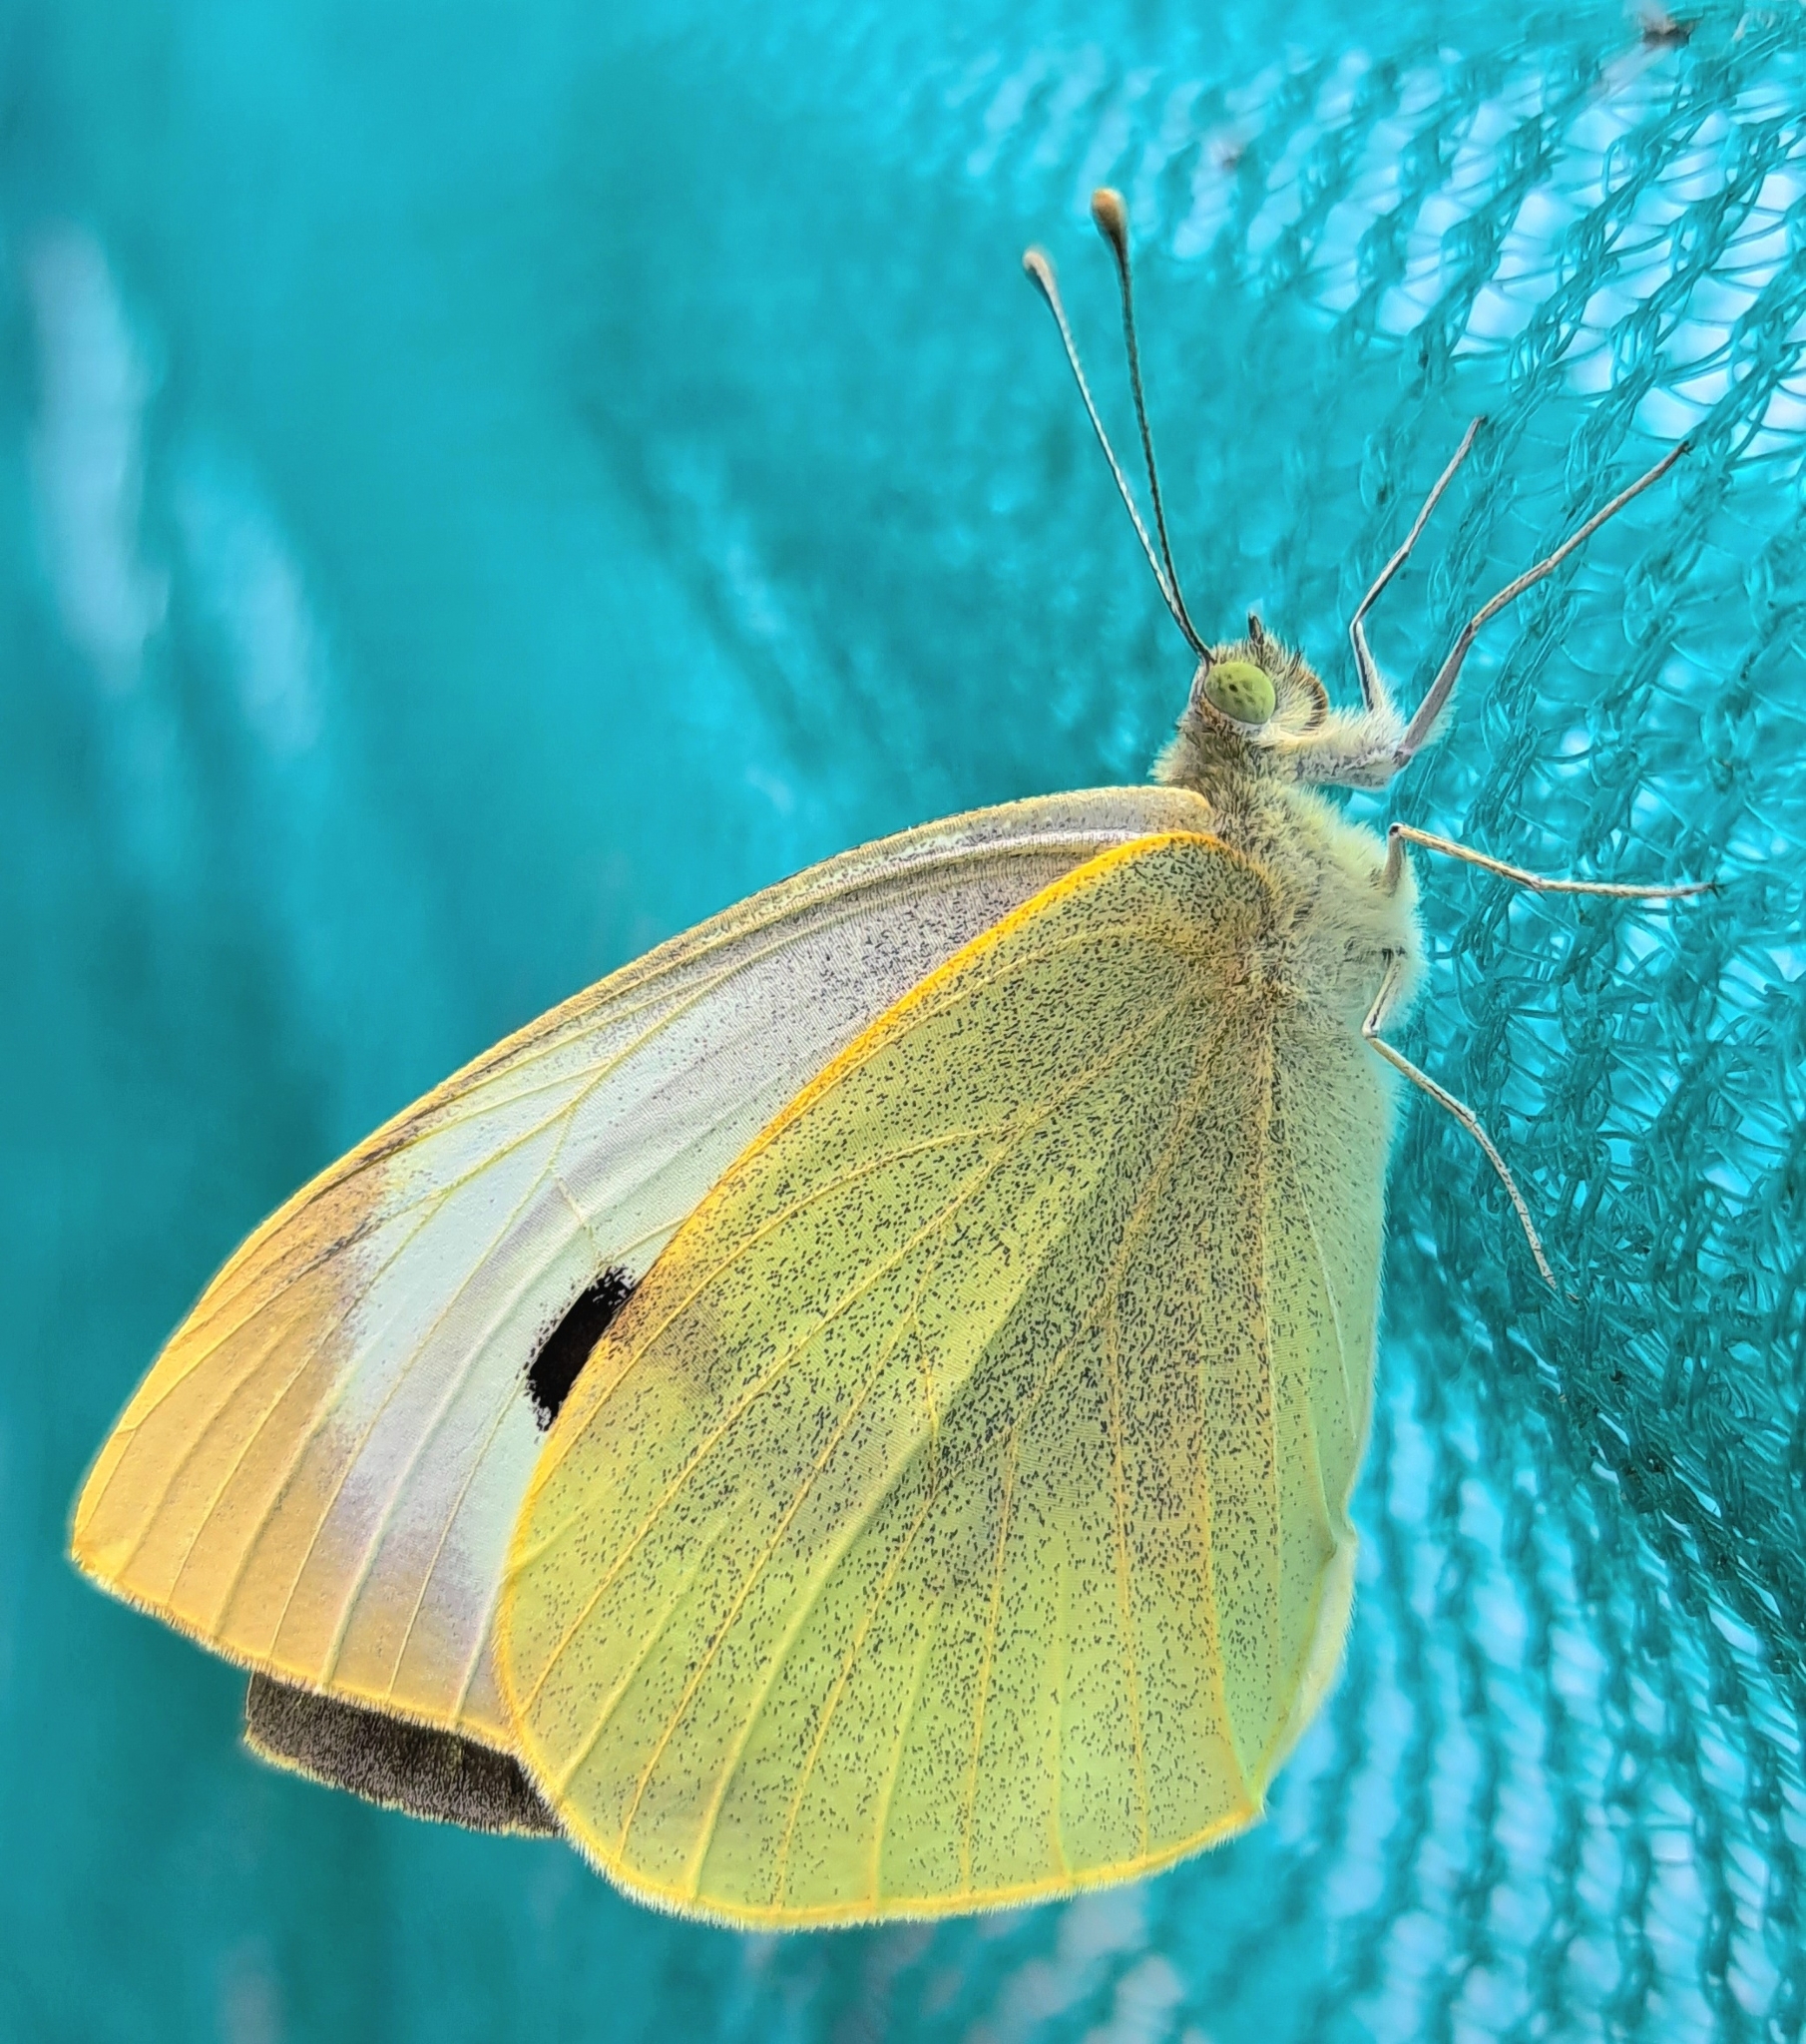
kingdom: Animalia
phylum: Arthropoda
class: Insecta
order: Lepidoptera
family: Pieridae
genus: Pieris
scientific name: Pieris brassicae
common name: Large white
